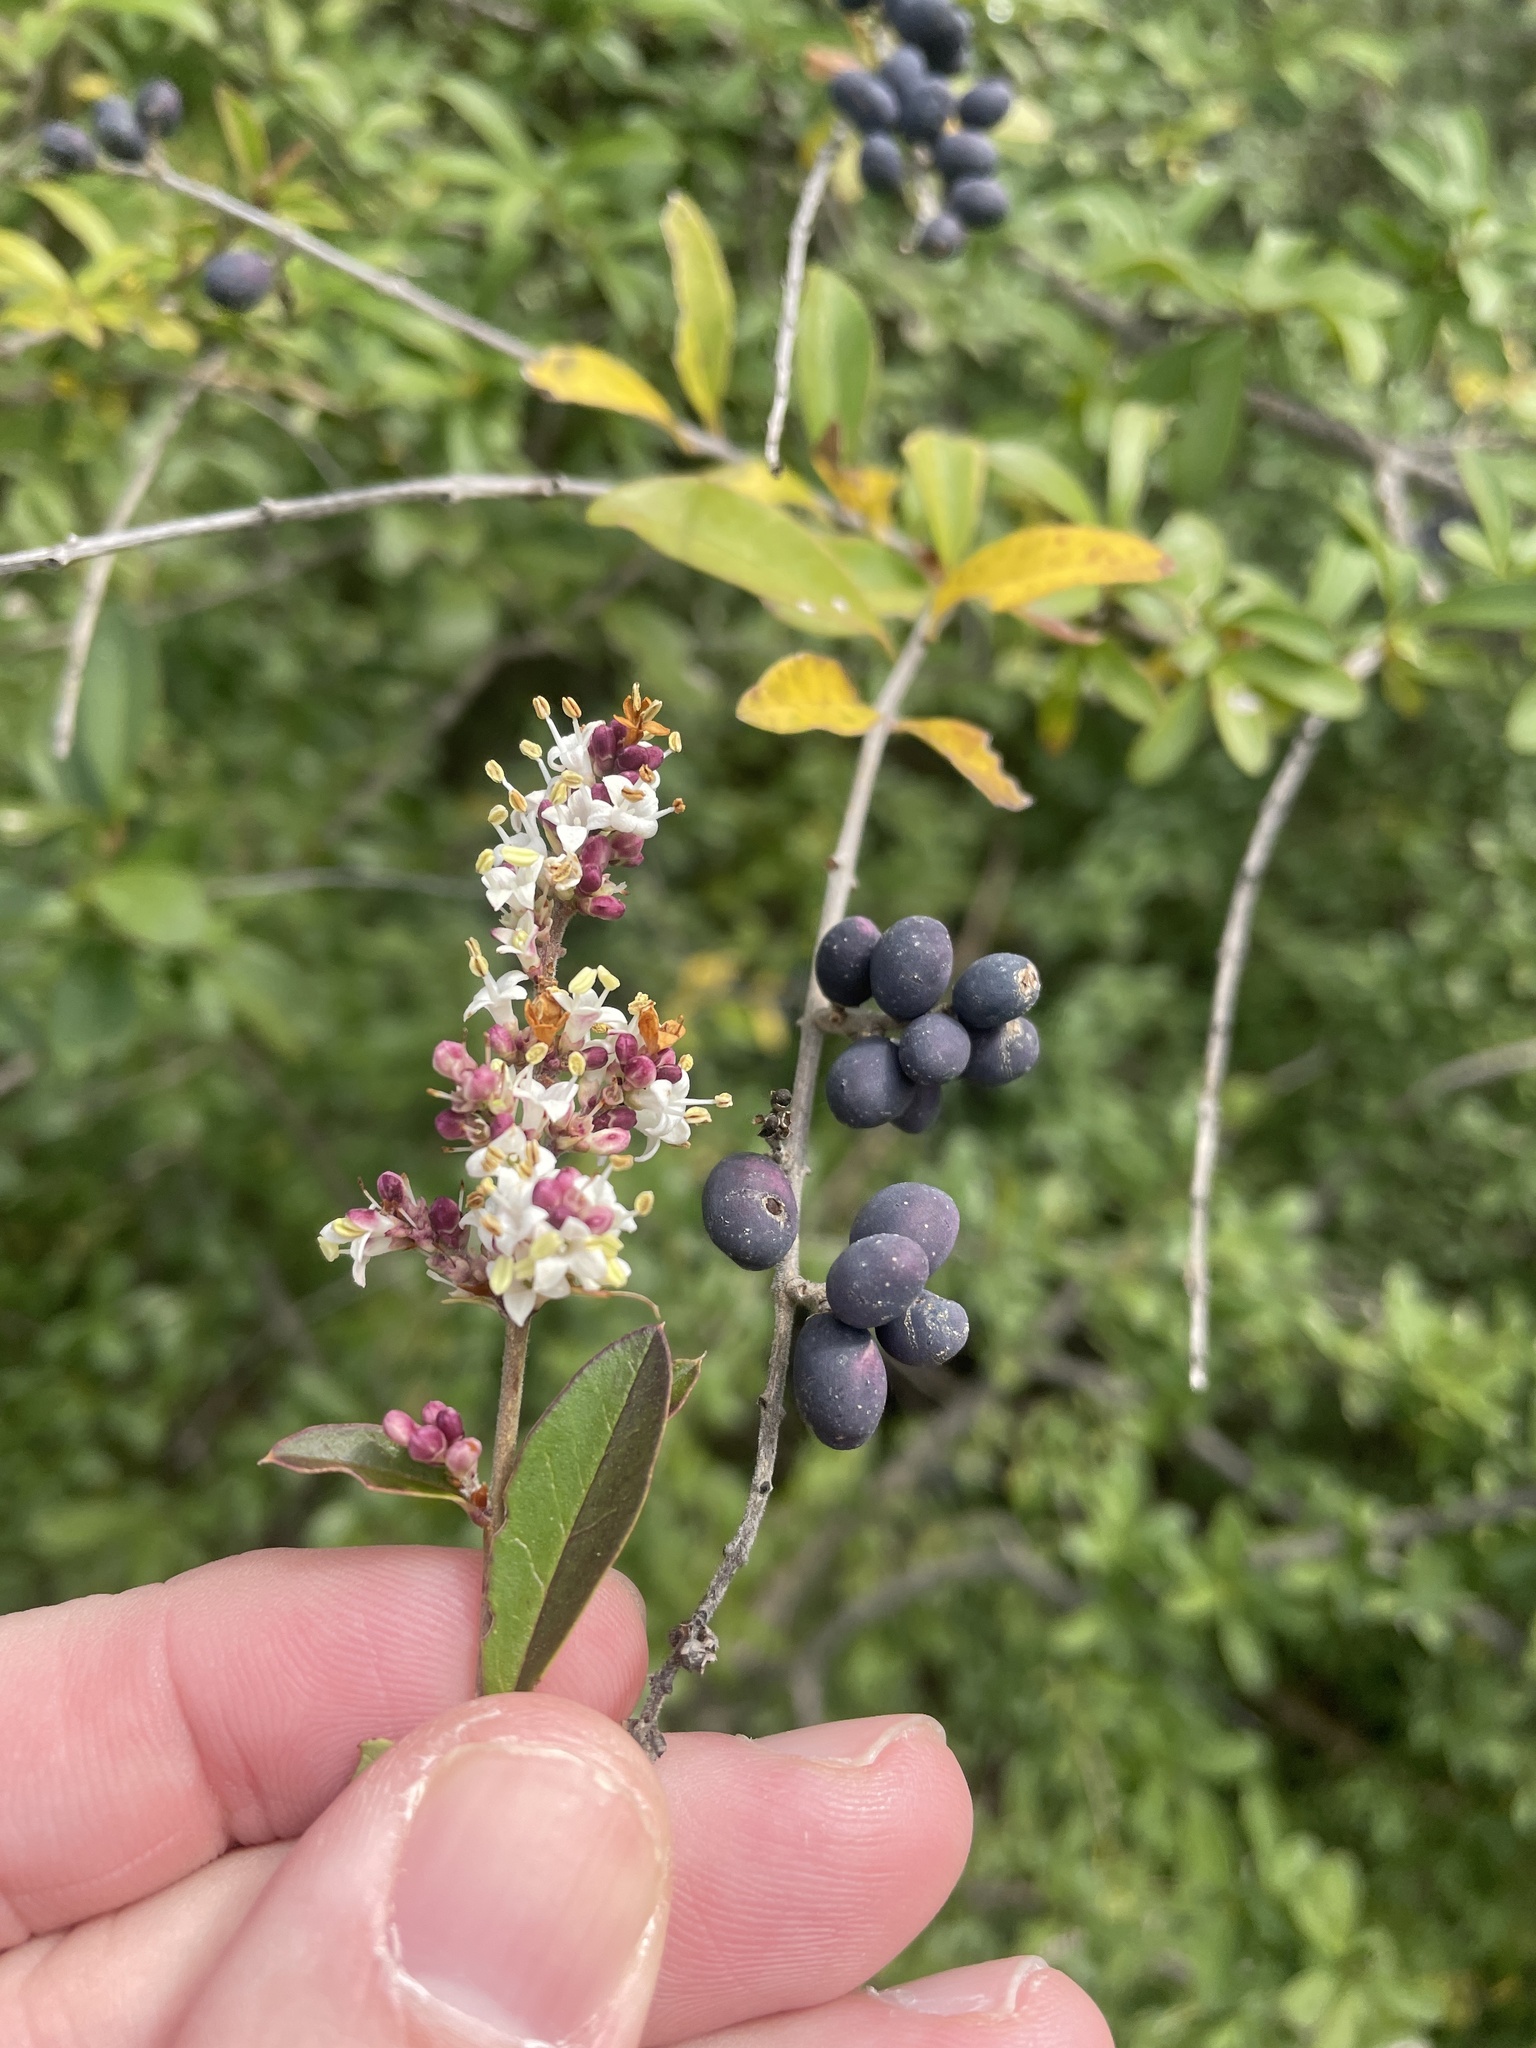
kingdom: Plantae
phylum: Tracheophyta
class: Magnoliopsida
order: Lamiales
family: Oleaceae
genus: Ligustrum
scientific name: Ligustrum quihoui
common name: Waxyleaf privet
